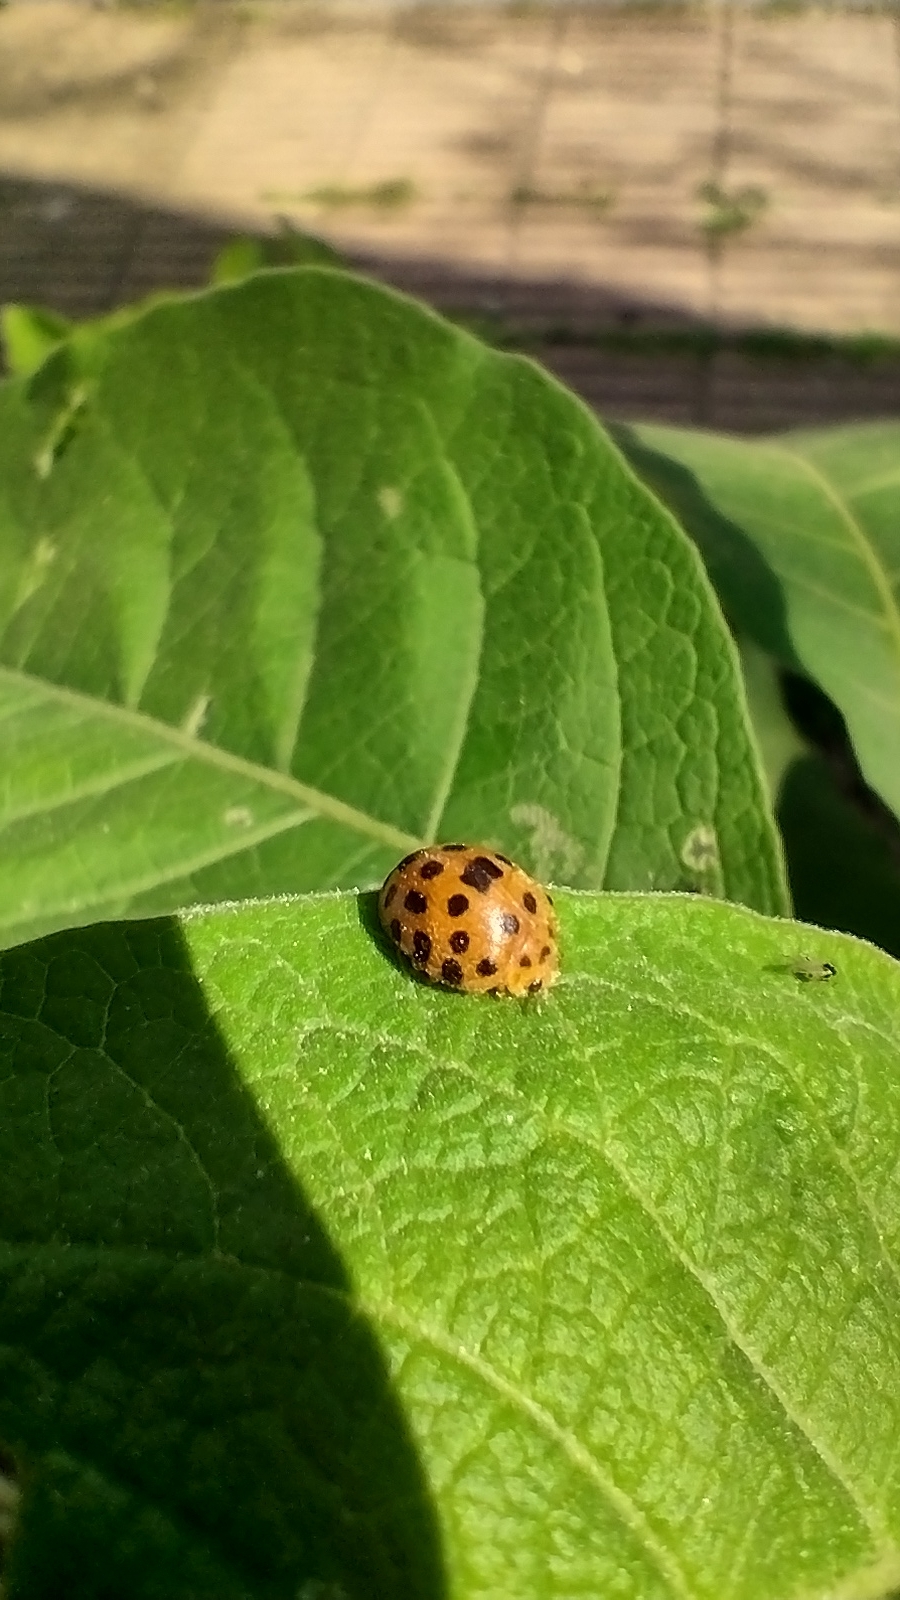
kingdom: Animalia
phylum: Arthropoda
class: Insecta
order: Coleoptera
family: Coccinellidae
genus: Henosepilachna
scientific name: Henosepilachna vigintioctopunctata
